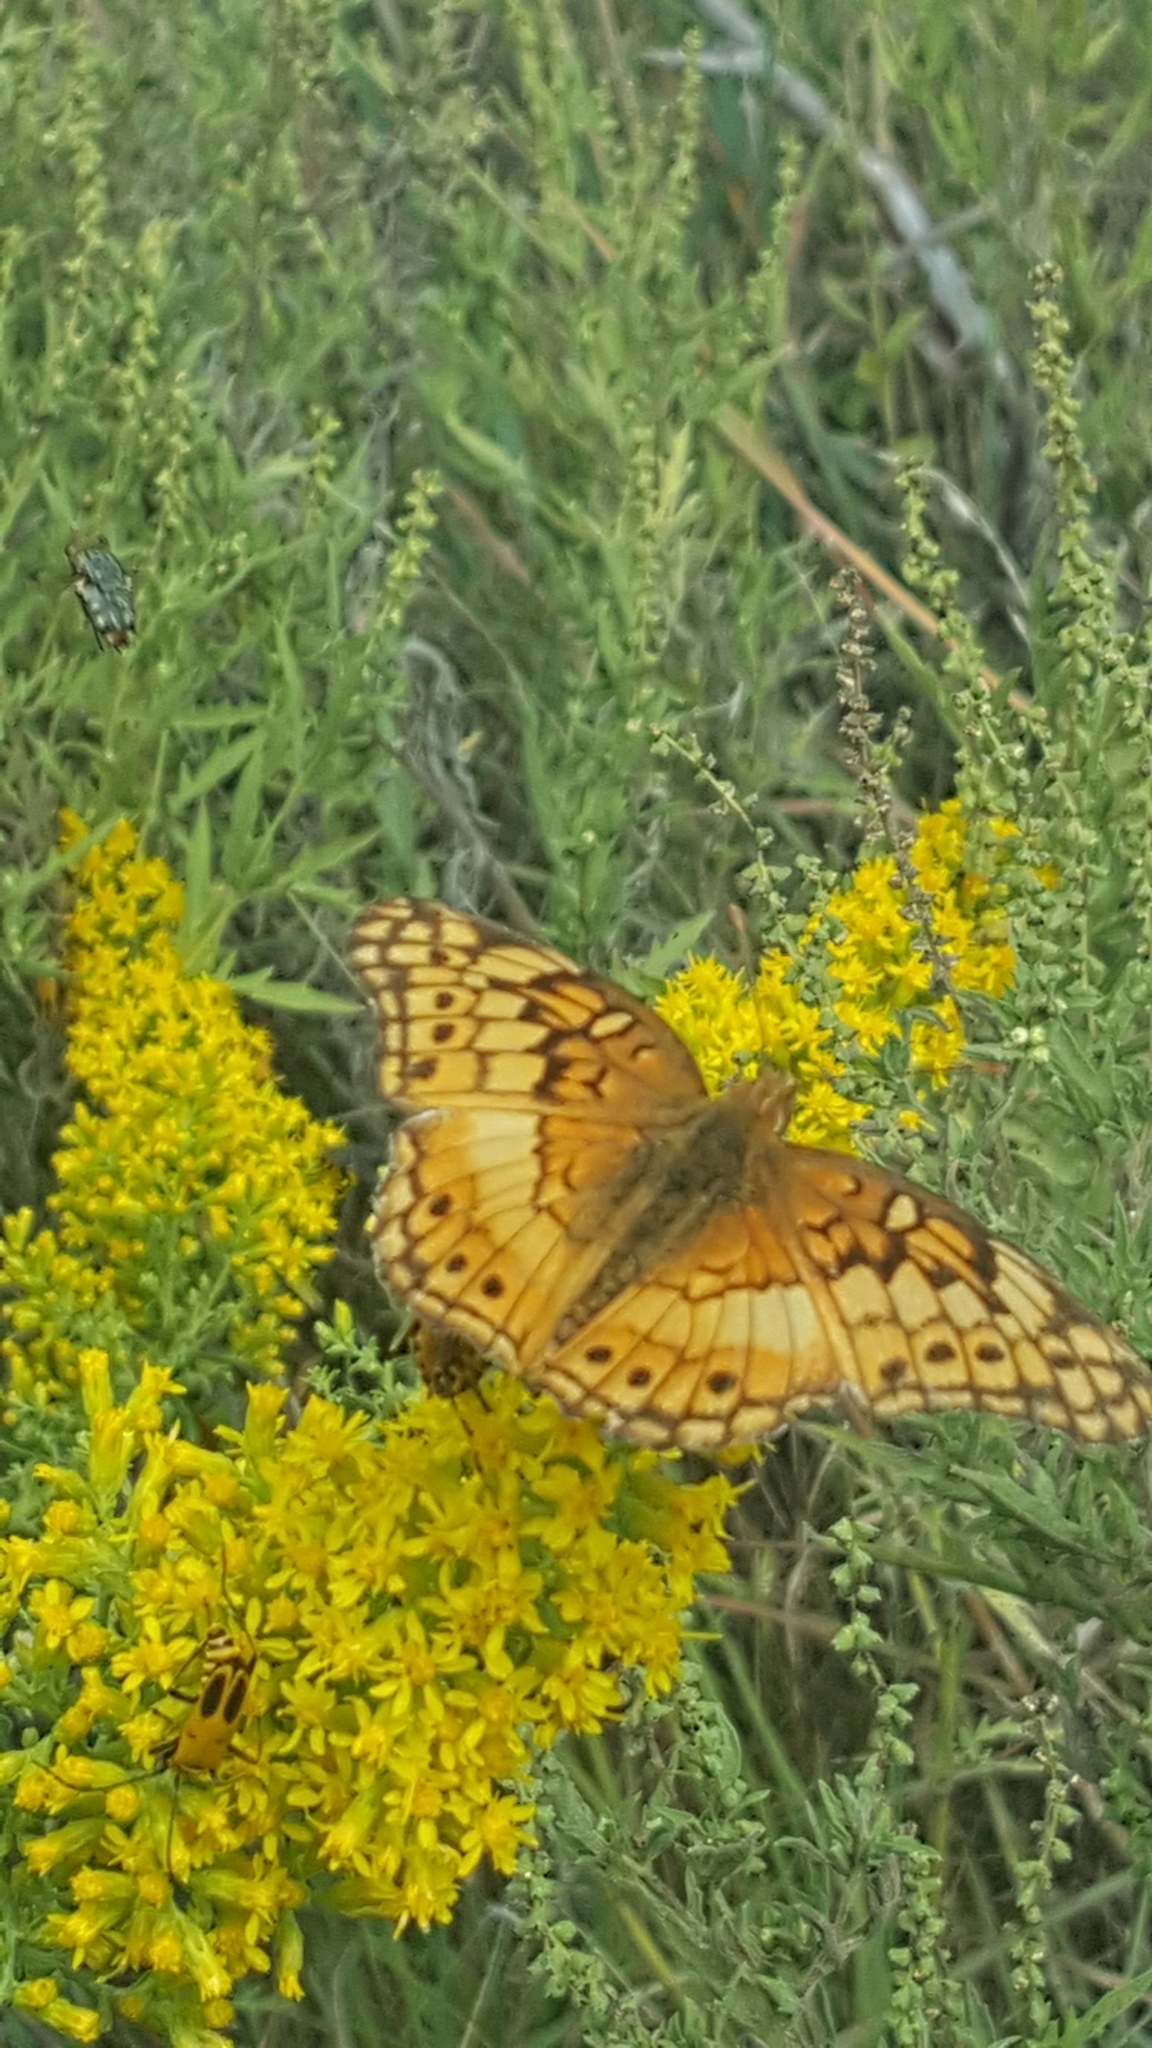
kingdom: Animalia
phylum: Arthropoda
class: Insecta
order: Lepidoptera
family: Nymphalidae
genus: Euptoieta
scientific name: Euptoieta claudia
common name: Variegated fritillary
